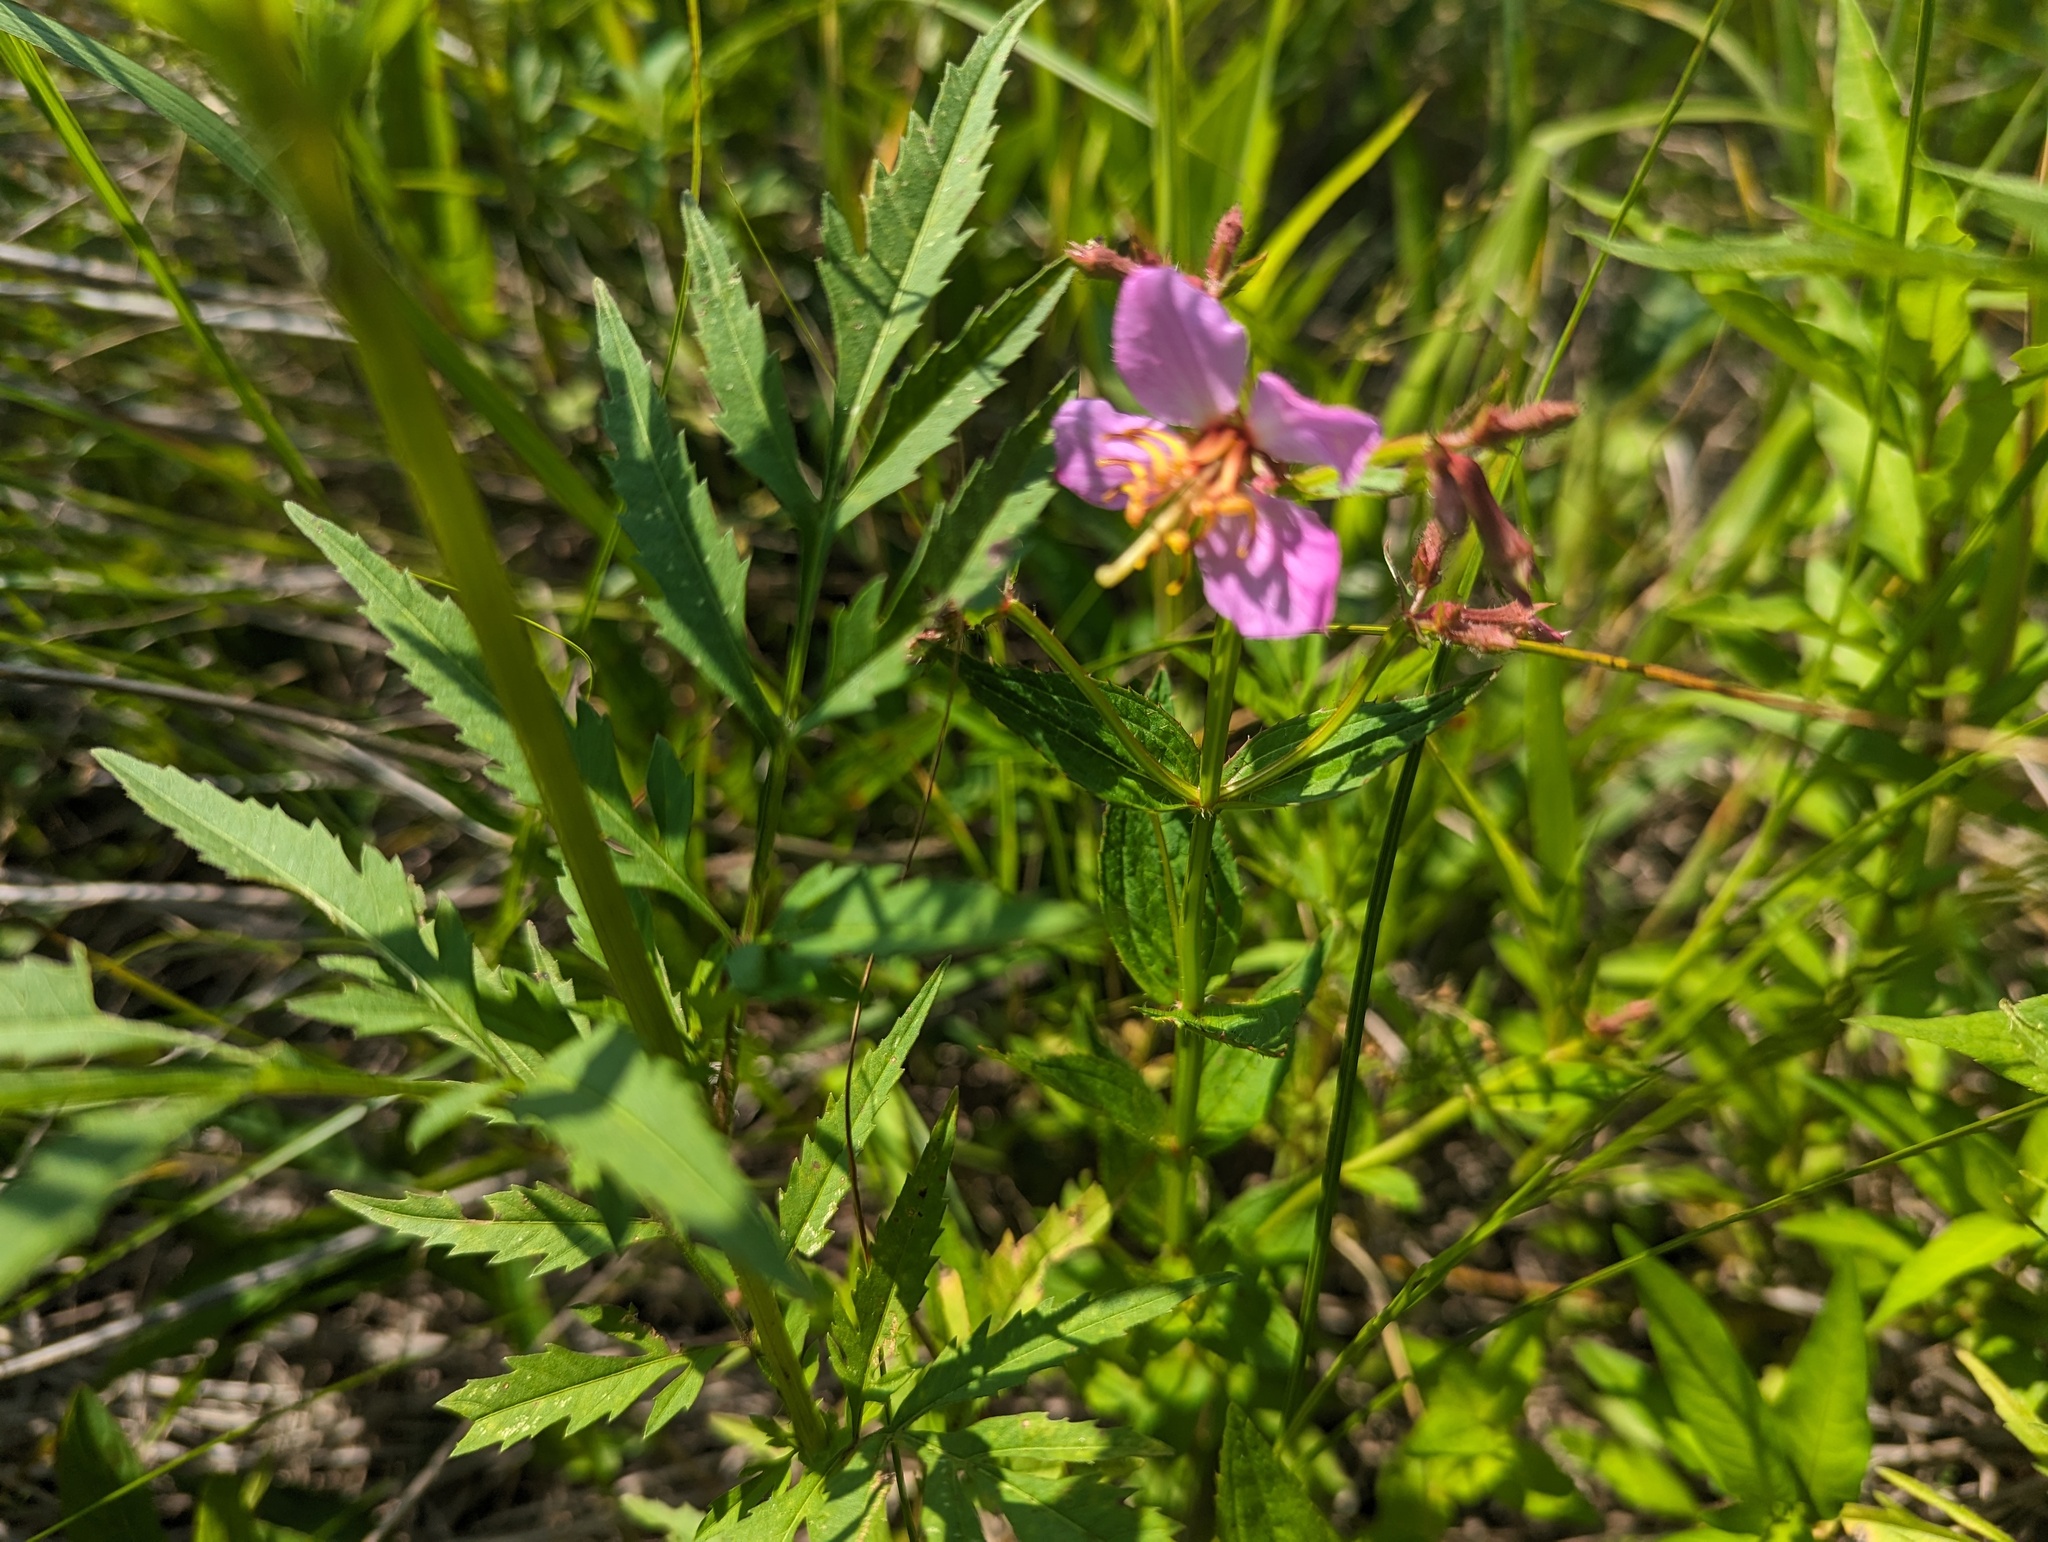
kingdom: Plantae
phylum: Tracheophyta
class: Magnoliopsida
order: Myrtales
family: Melastomataceae
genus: Rhexia
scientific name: Rhexia virginica
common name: Common meadow beauty
